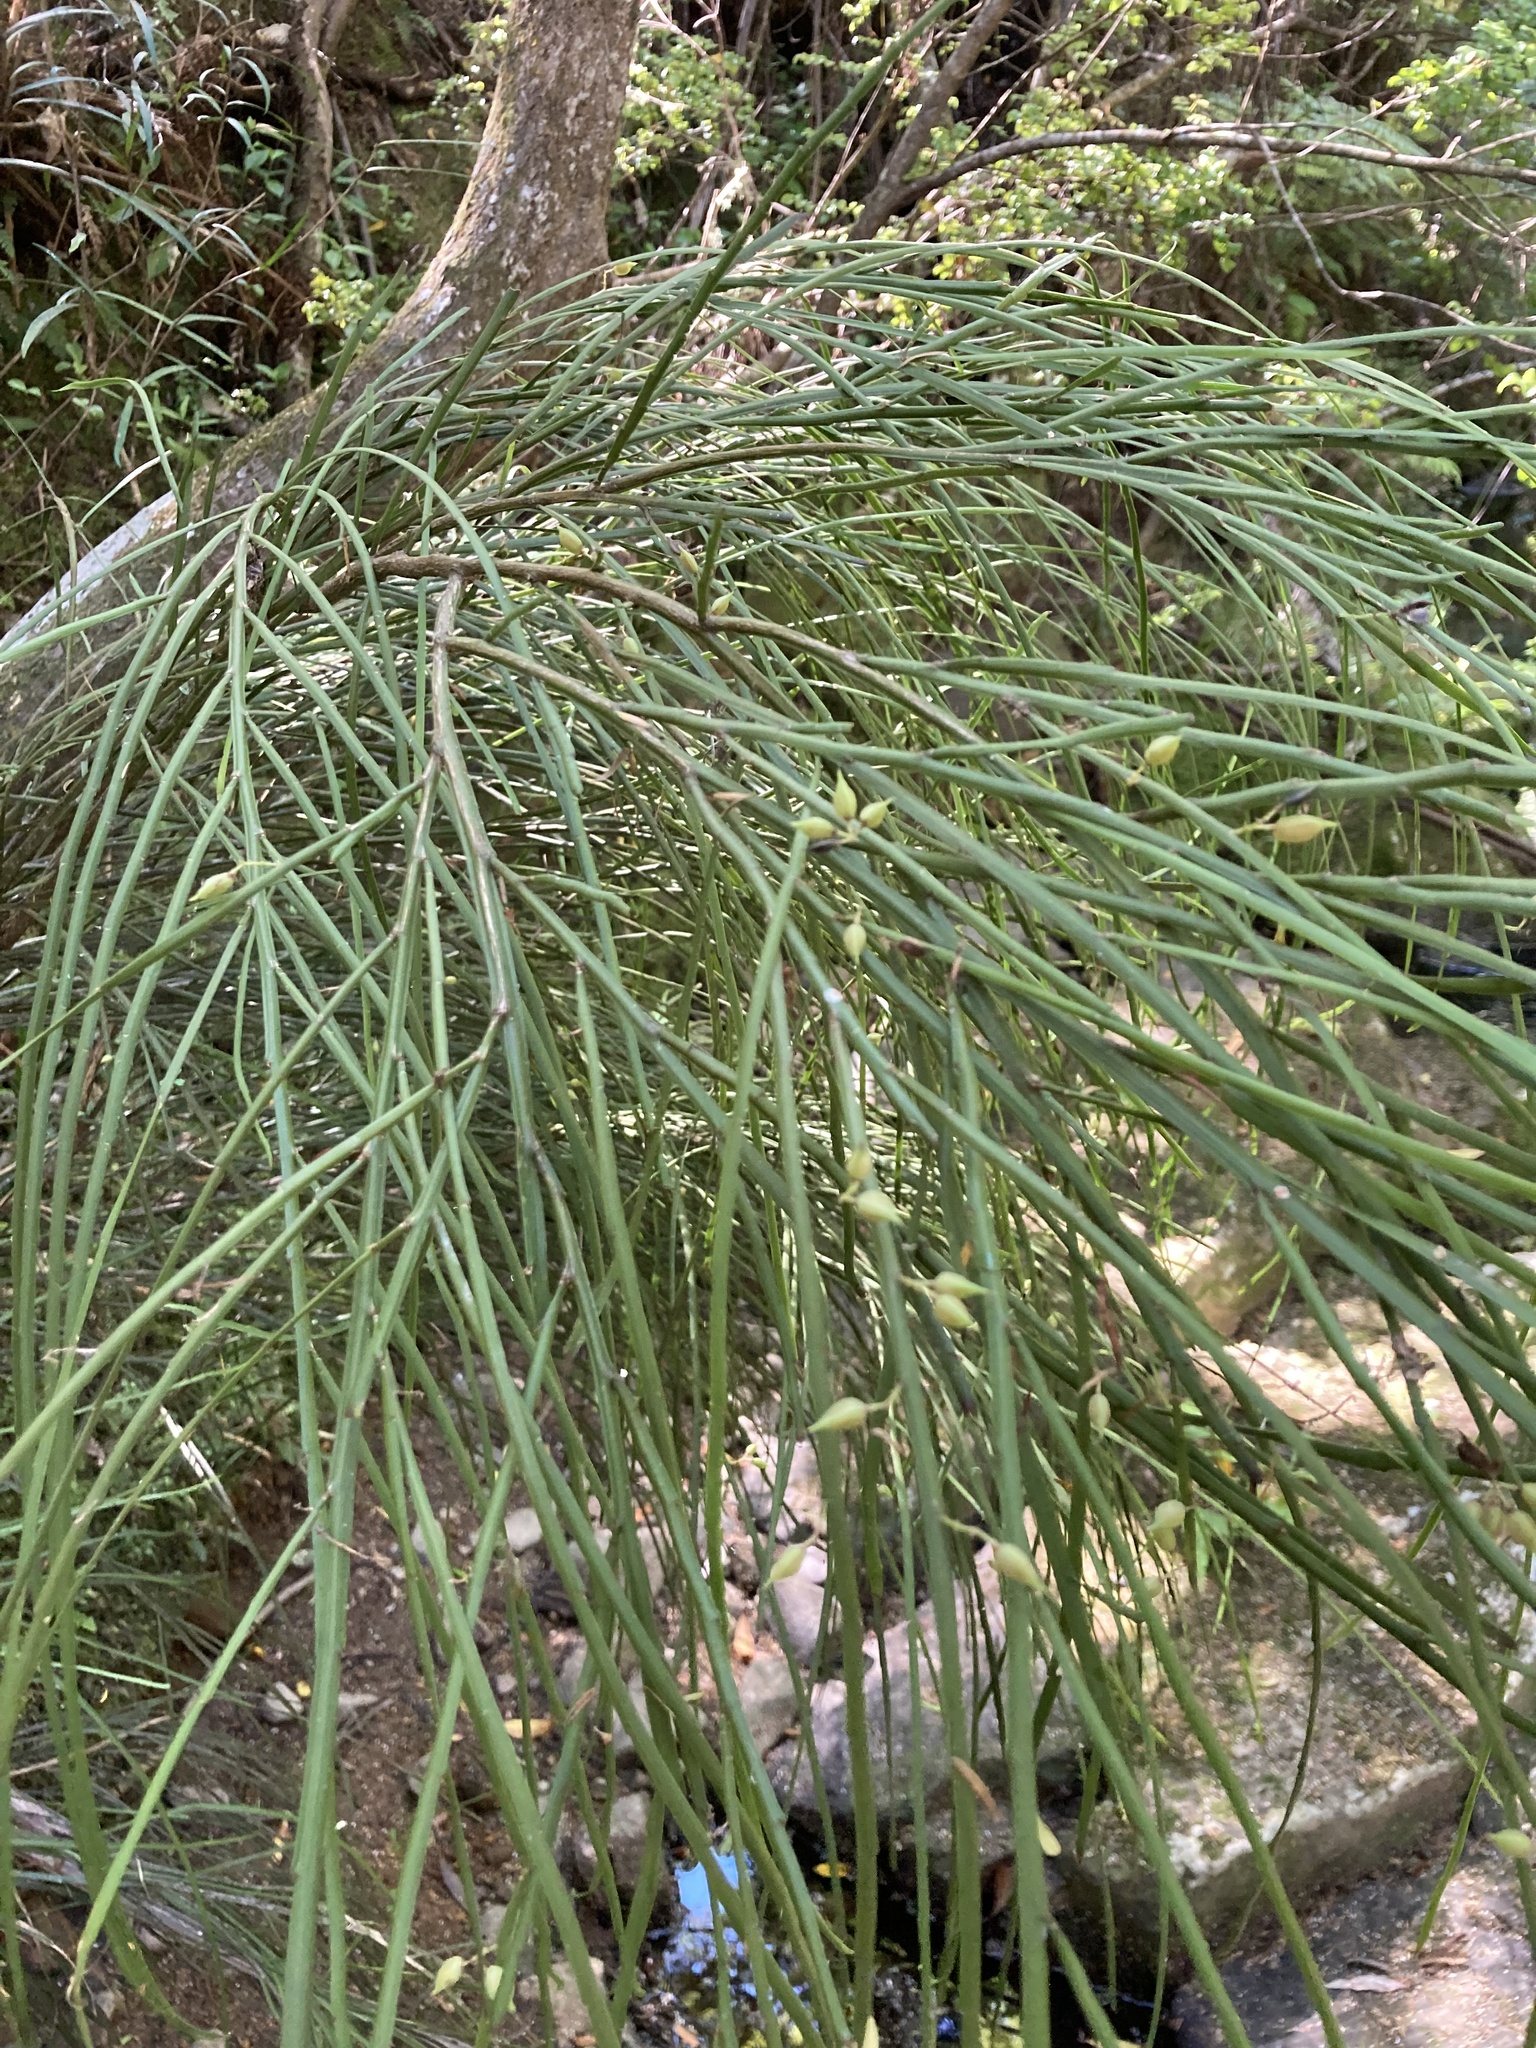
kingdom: Plantae
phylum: Tracheophyta
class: Magnoliopsida
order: Fabales
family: Fabaceae
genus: Carmichaelia
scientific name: Carmichaelia australis
